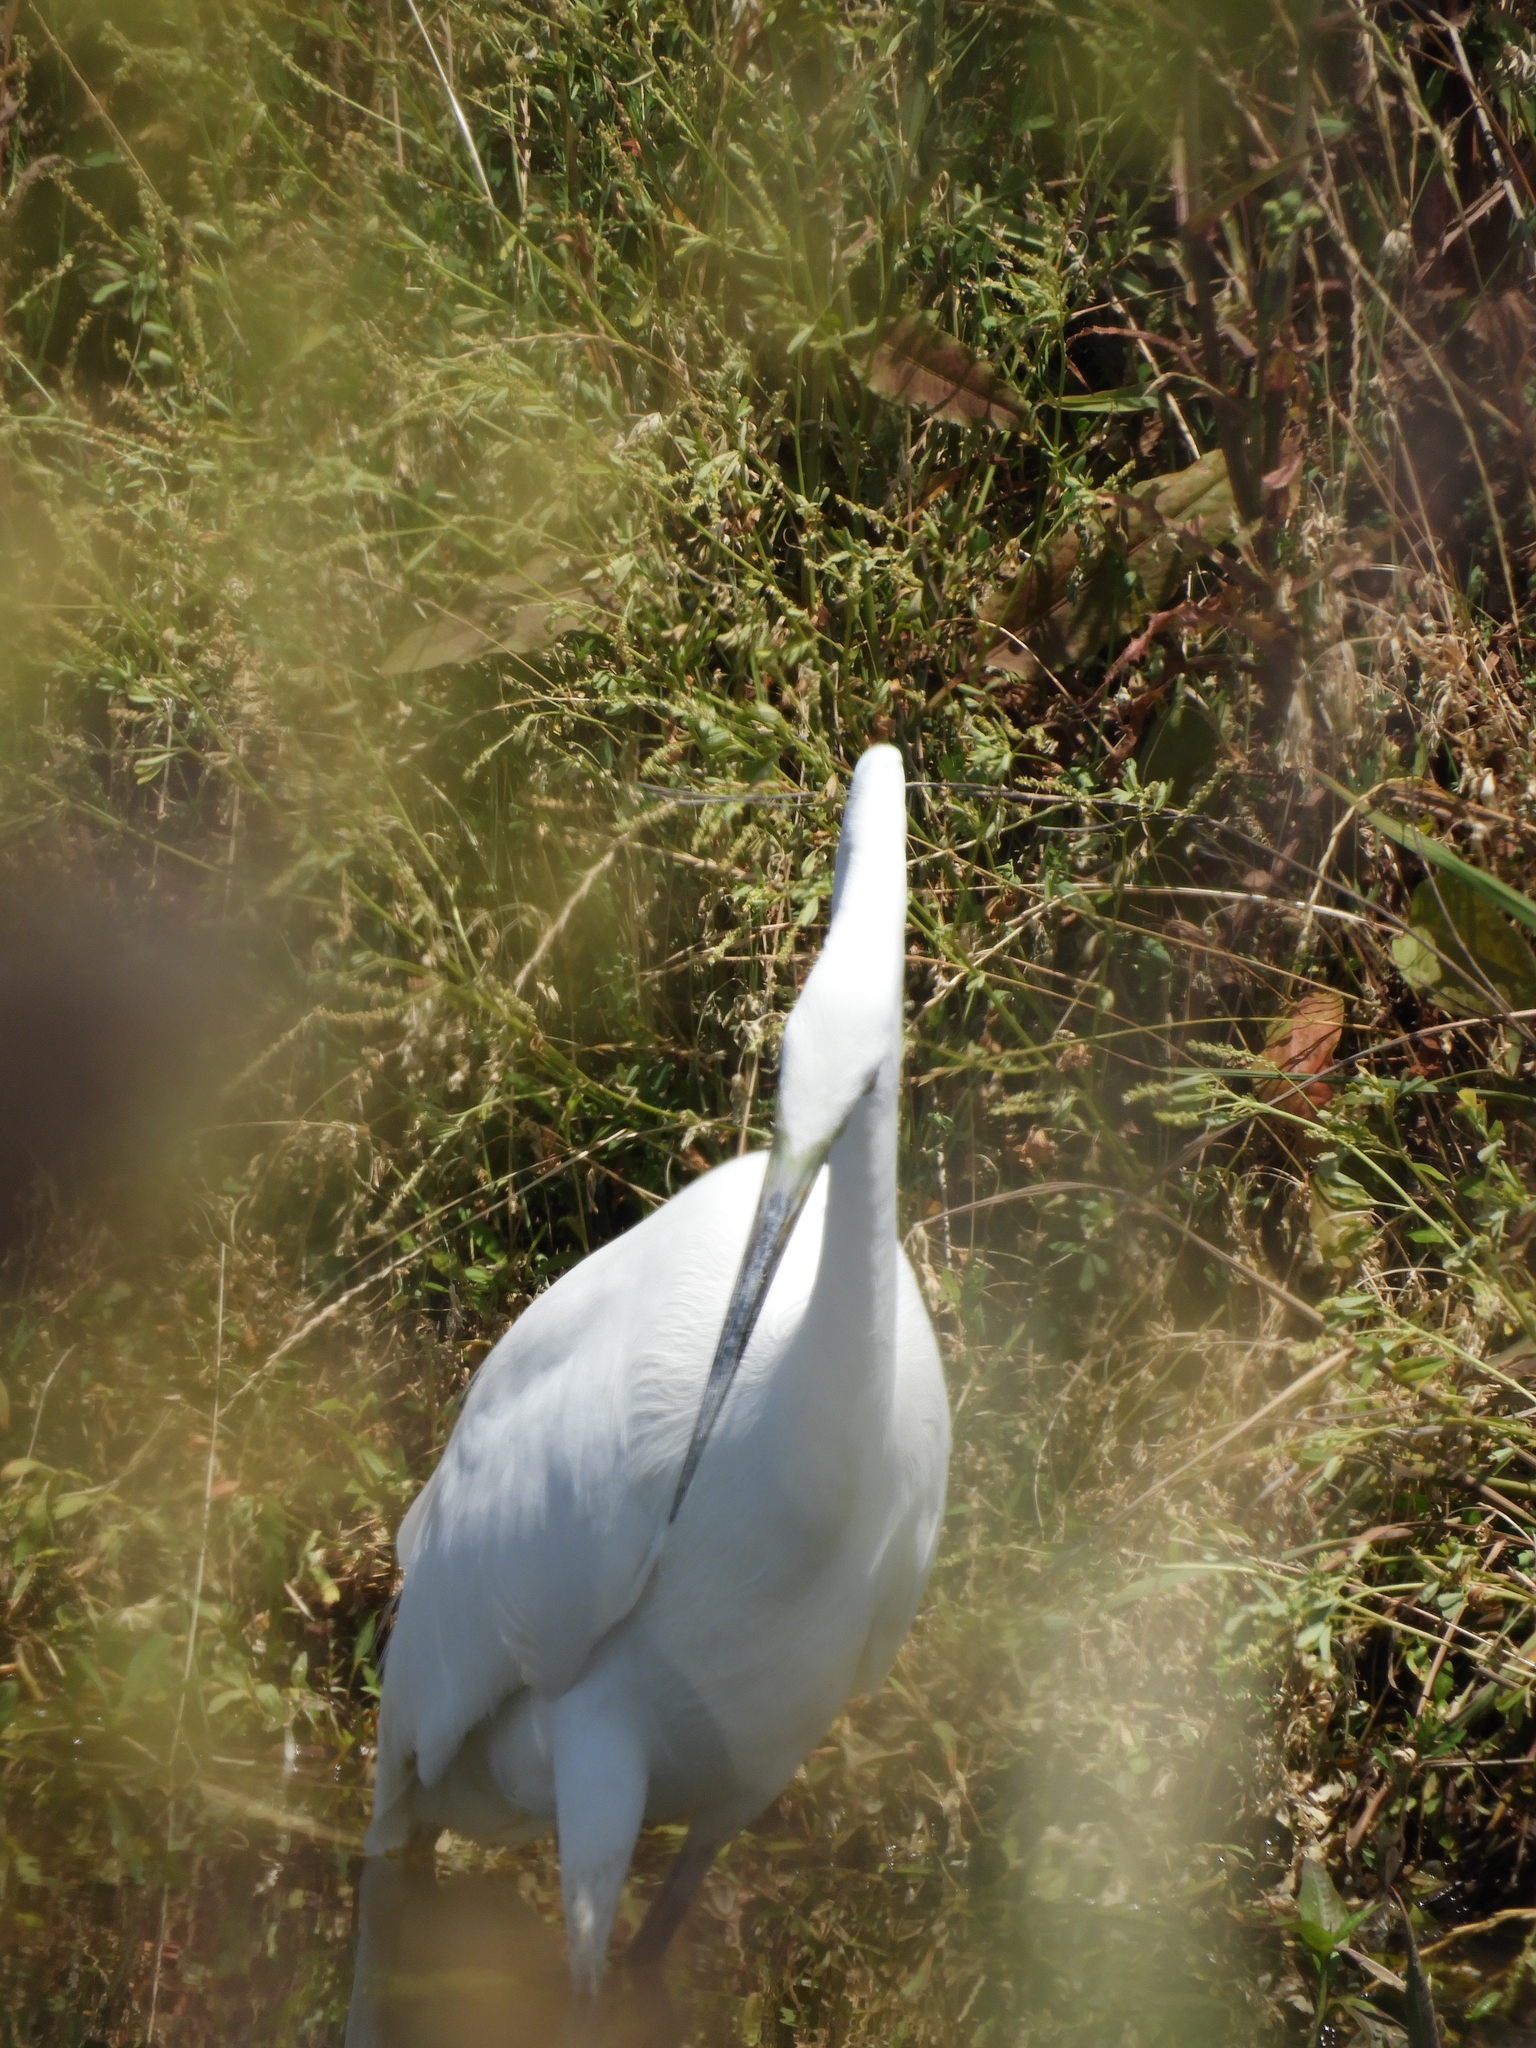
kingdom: Animalia
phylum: Chordata
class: Aves
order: Pelecaniformes
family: Ardeidae
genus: Ardea
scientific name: Ardea alba
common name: Great egret
